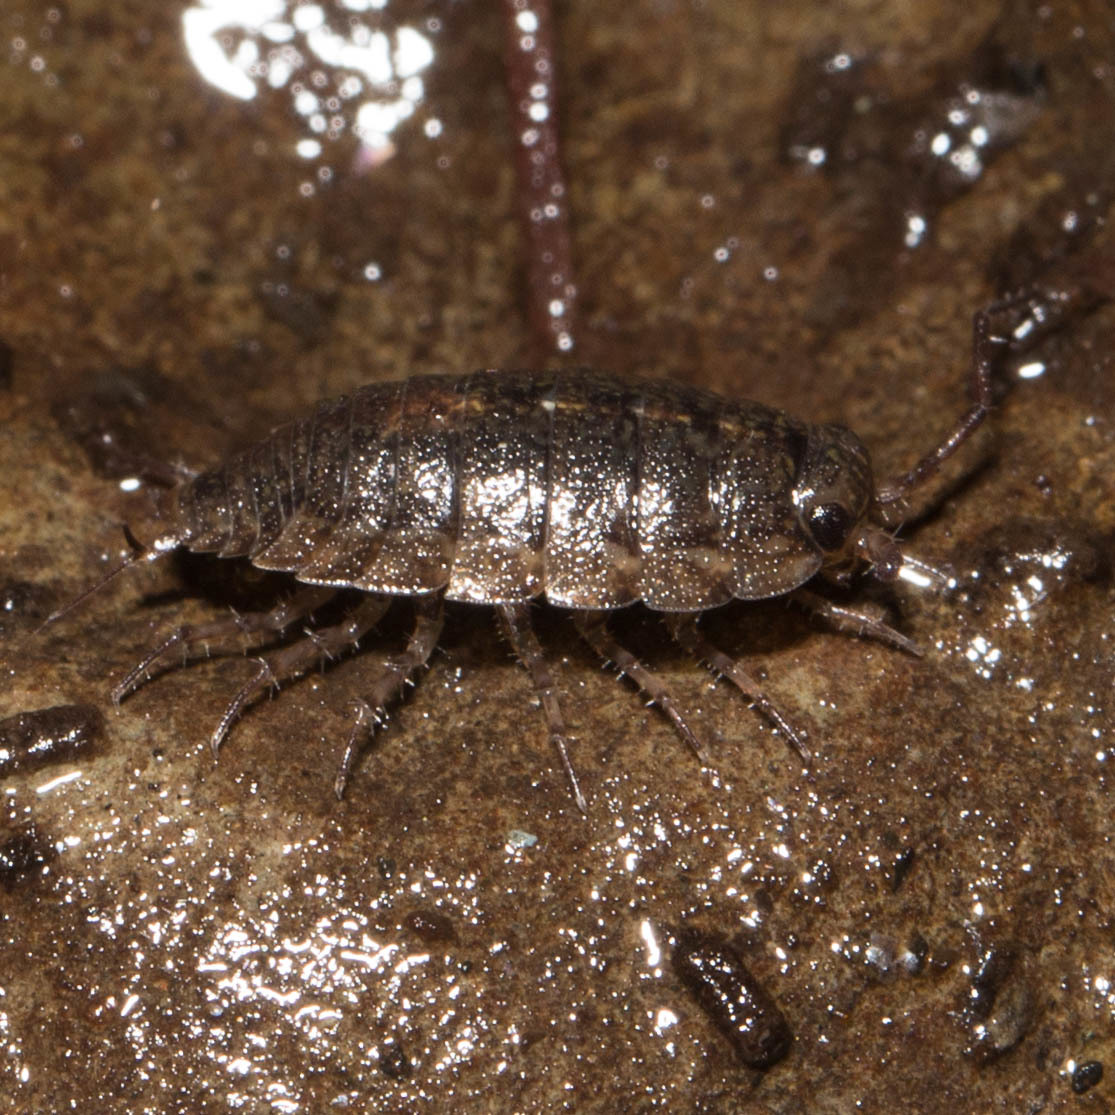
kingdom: Animalia
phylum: Arthropoda
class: Malacostraca
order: Isopoda
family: Ligiidae
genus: Ligidium
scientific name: Ligidium latum
